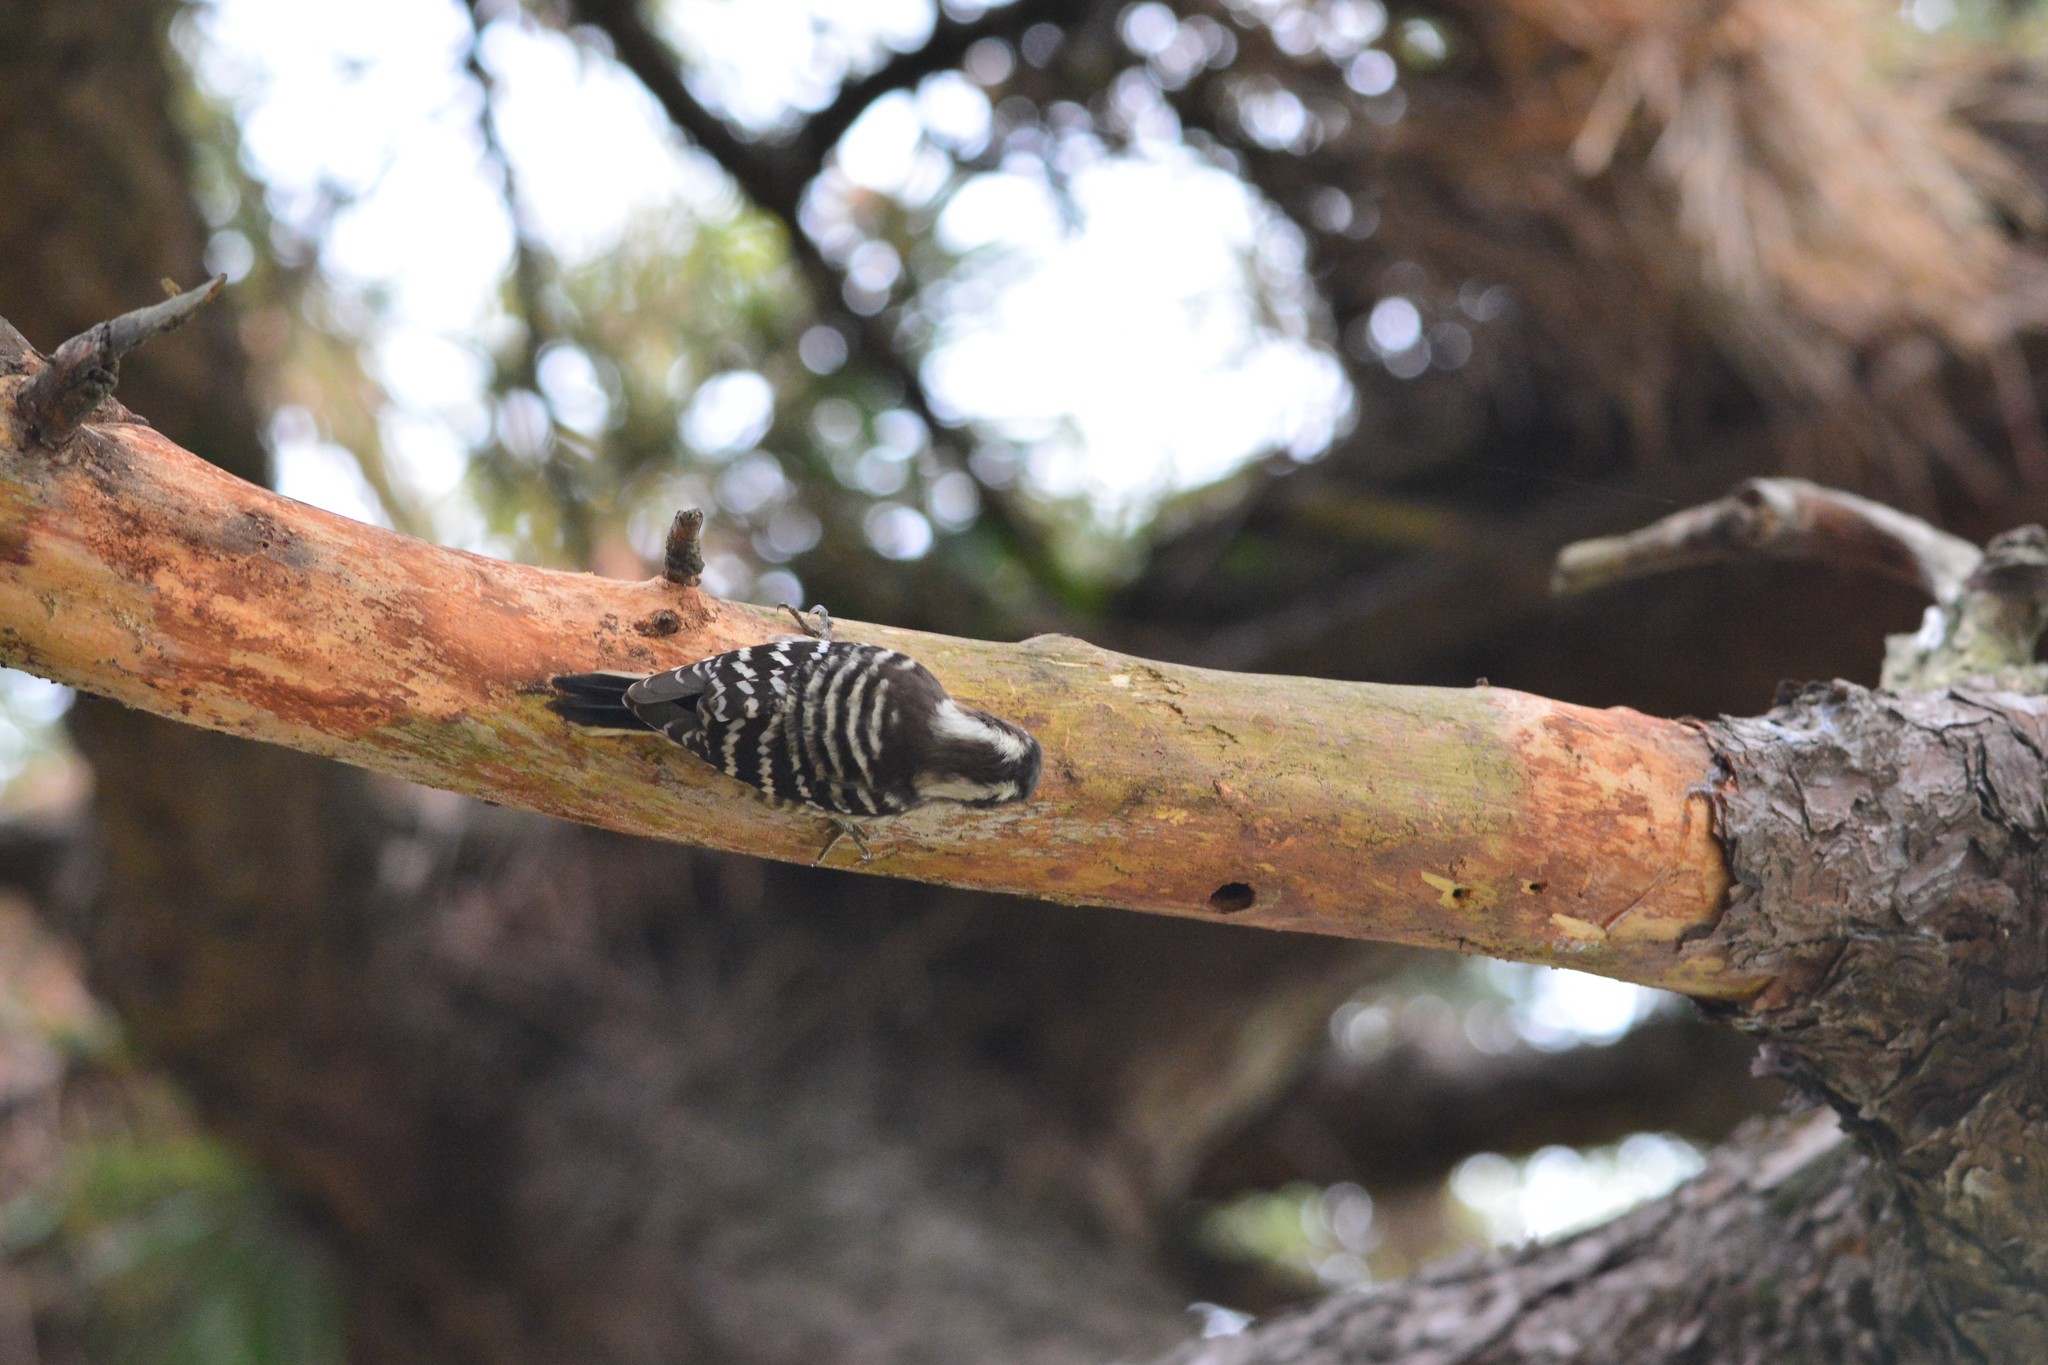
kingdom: Animalia
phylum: Chordata
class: Aves
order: Piciformes
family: Picidae
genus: Yungipicus
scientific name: Yungipicus kizuki
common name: Japanese pygmy woodpecker
